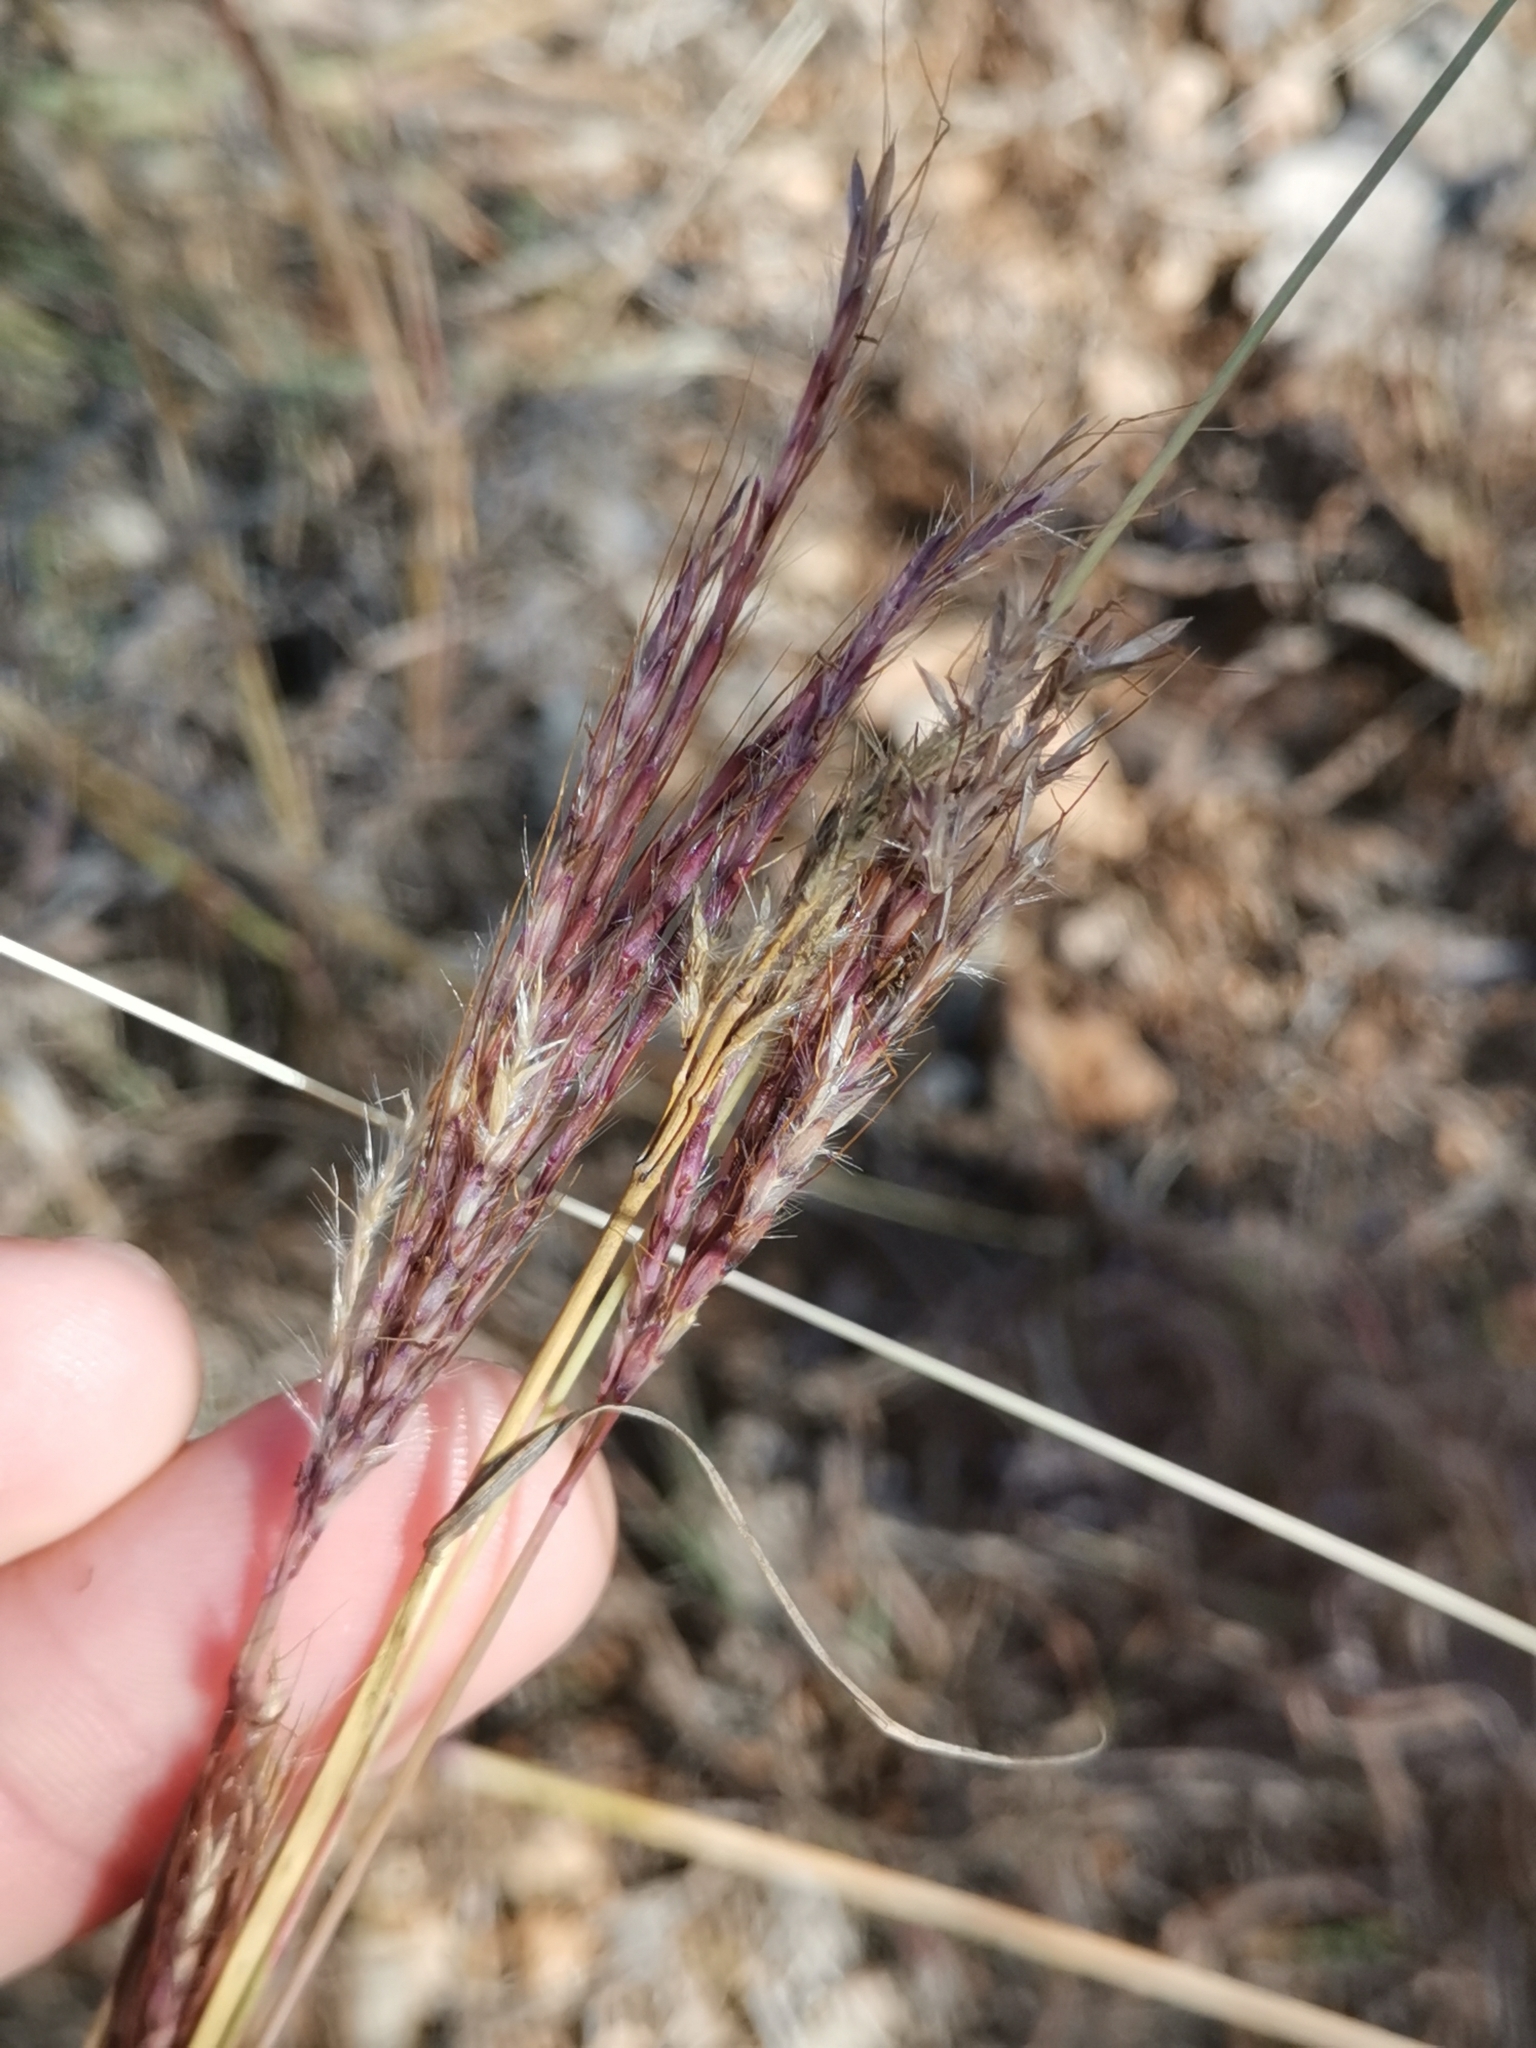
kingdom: Plantae
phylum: Tracheophyta
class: Liliopsida
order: Poales
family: Poaceae
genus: Bothriochloa
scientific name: Bothriochloa ischaemum
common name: Yellow bluestem
